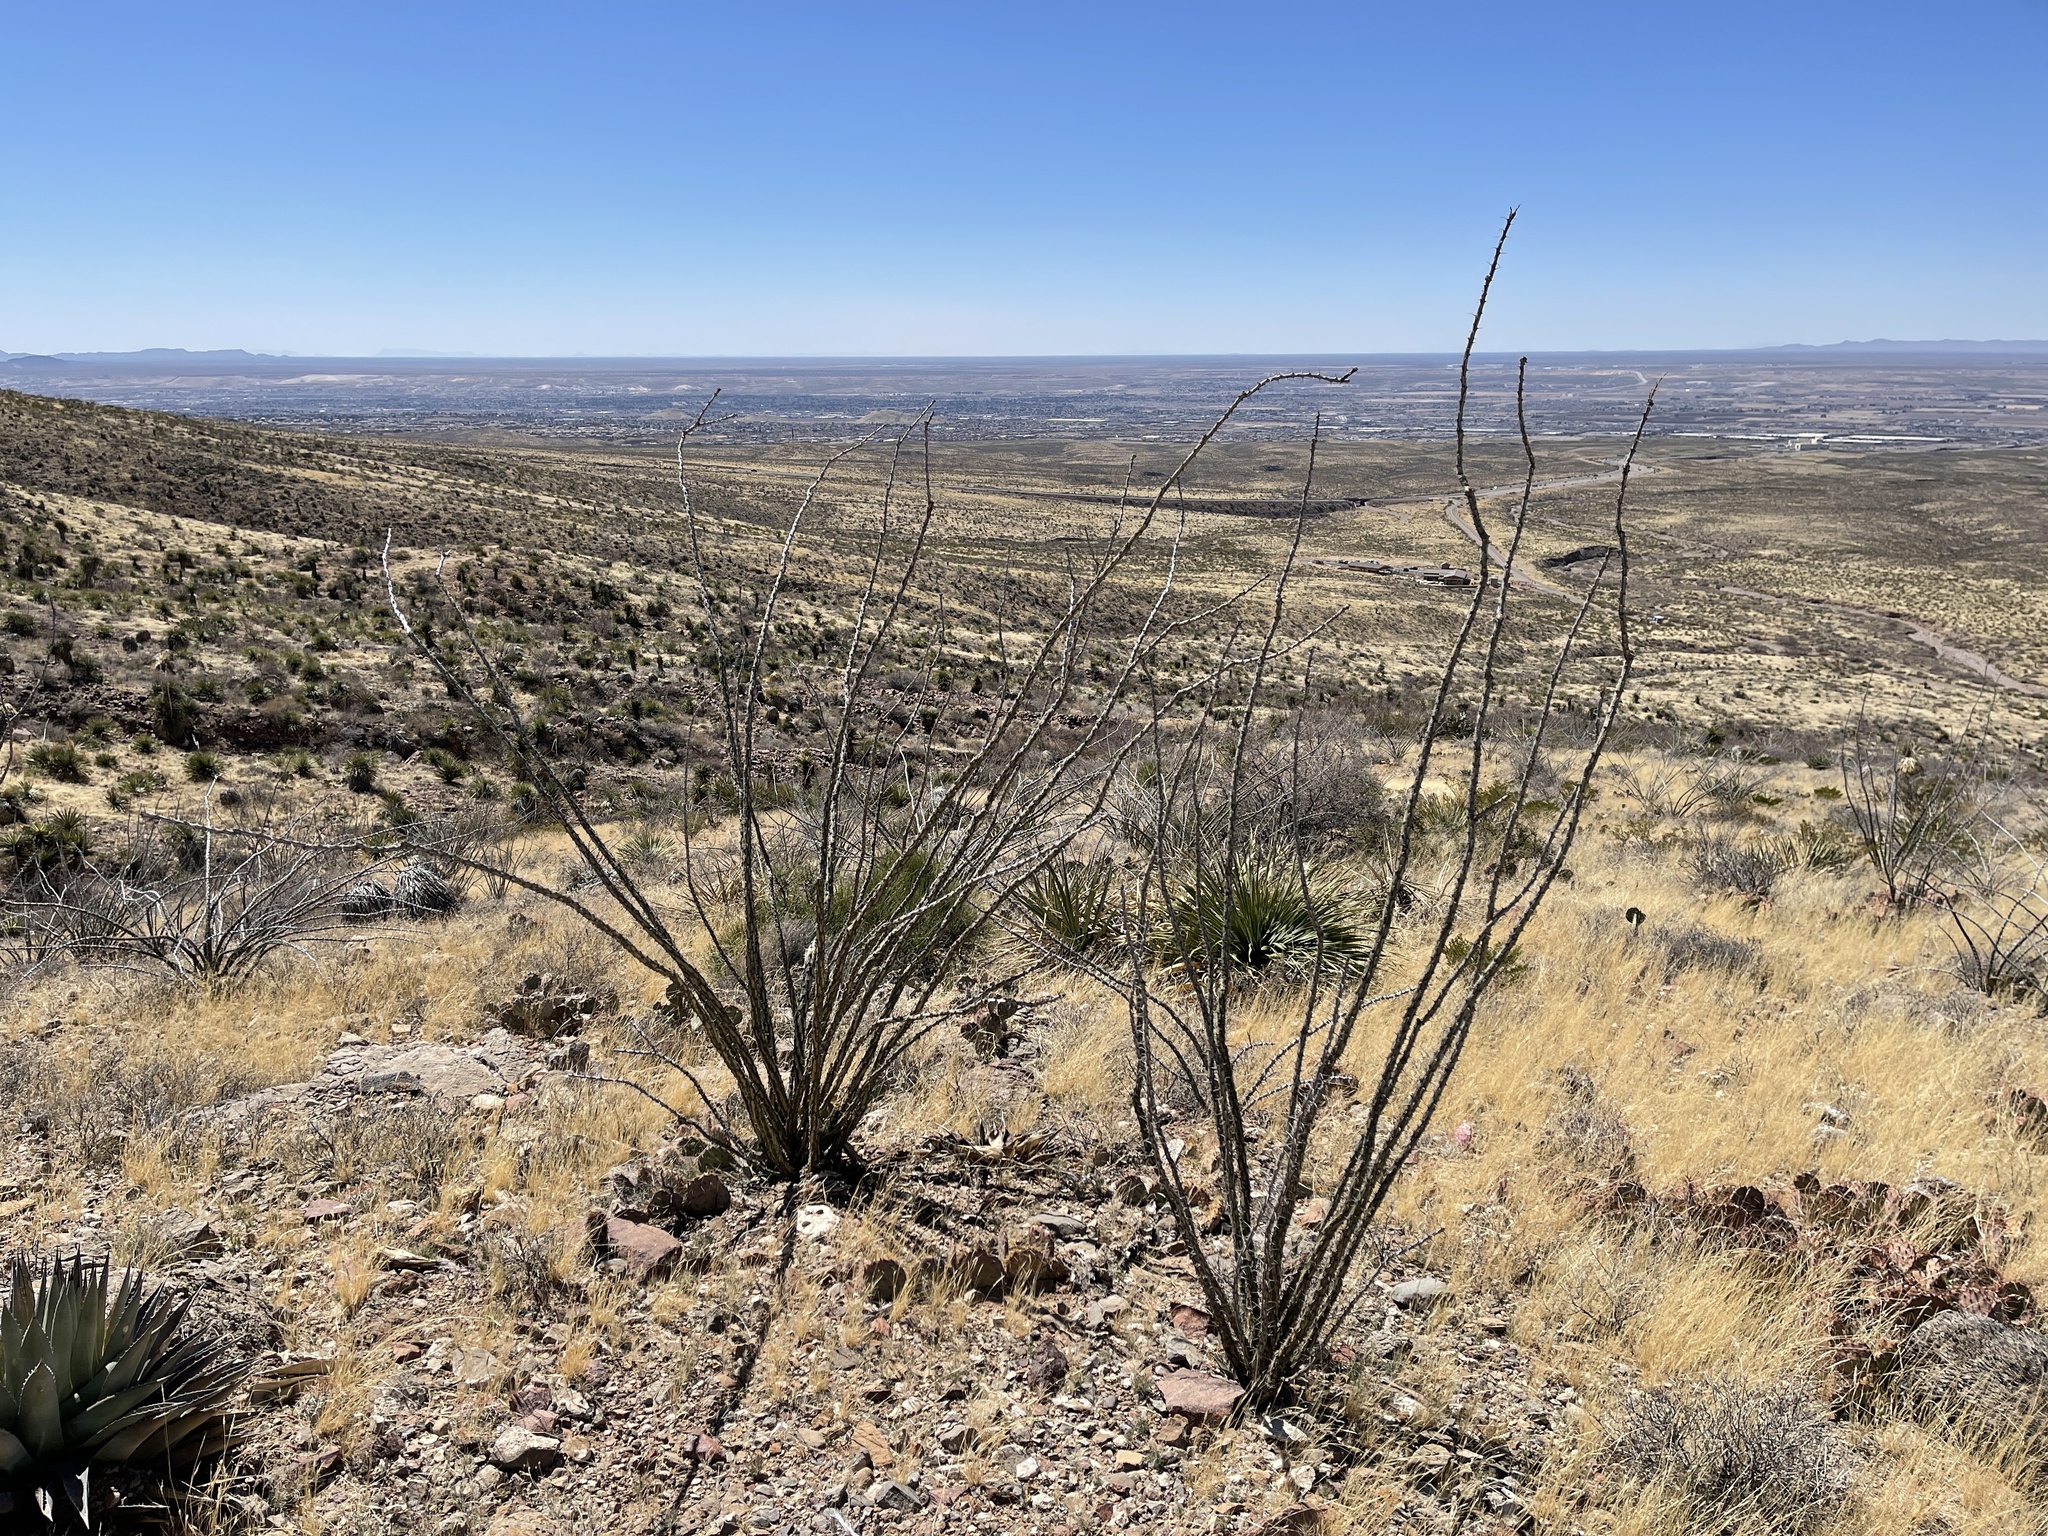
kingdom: Plantae
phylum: Tracheophyta
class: Magnoliopsida
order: Ericales
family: Fouquieriaceae
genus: Fouquieria
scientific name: Fouquieria splendens
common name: Vine-cactus
